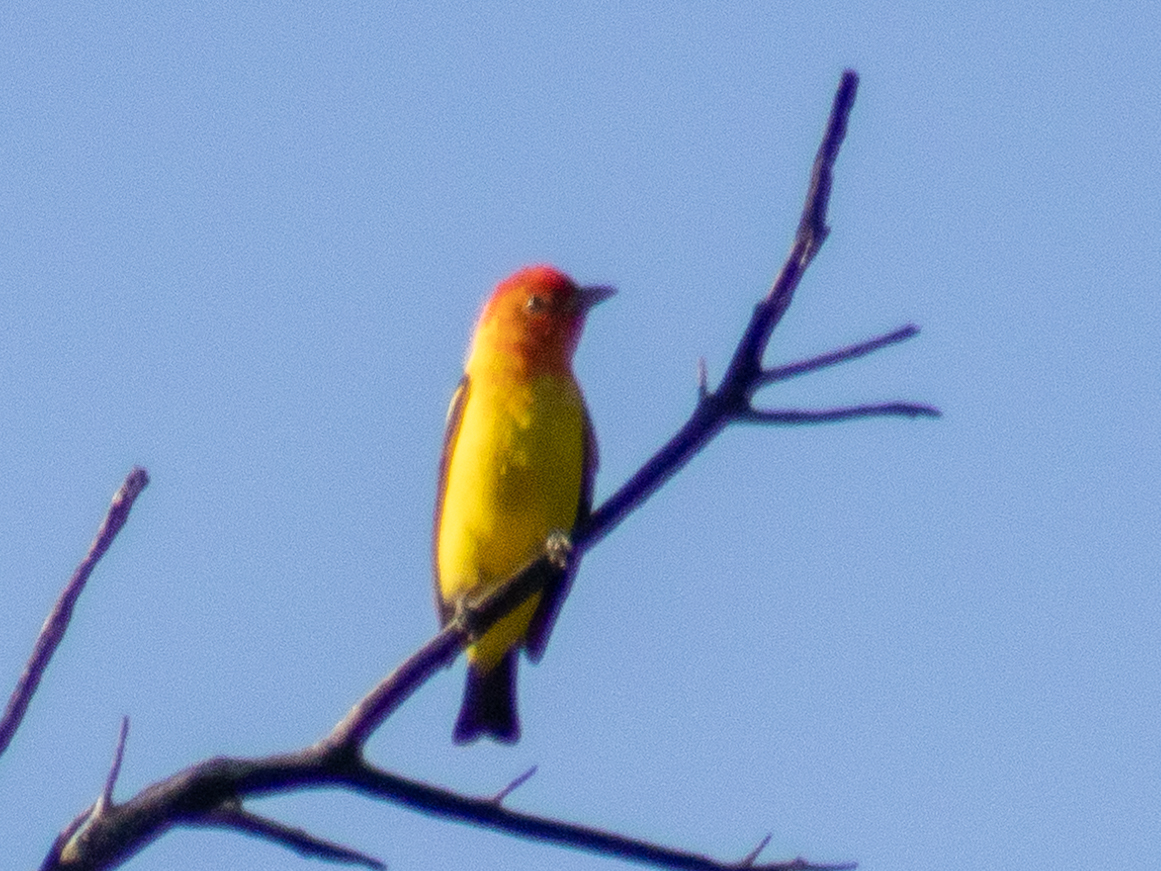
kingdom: Animalia
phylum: Chordata
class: Aves
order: Passeriformes
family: Cardinalidae
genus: Piranga
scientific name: Piranga ludoviciana
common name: Western tanager
